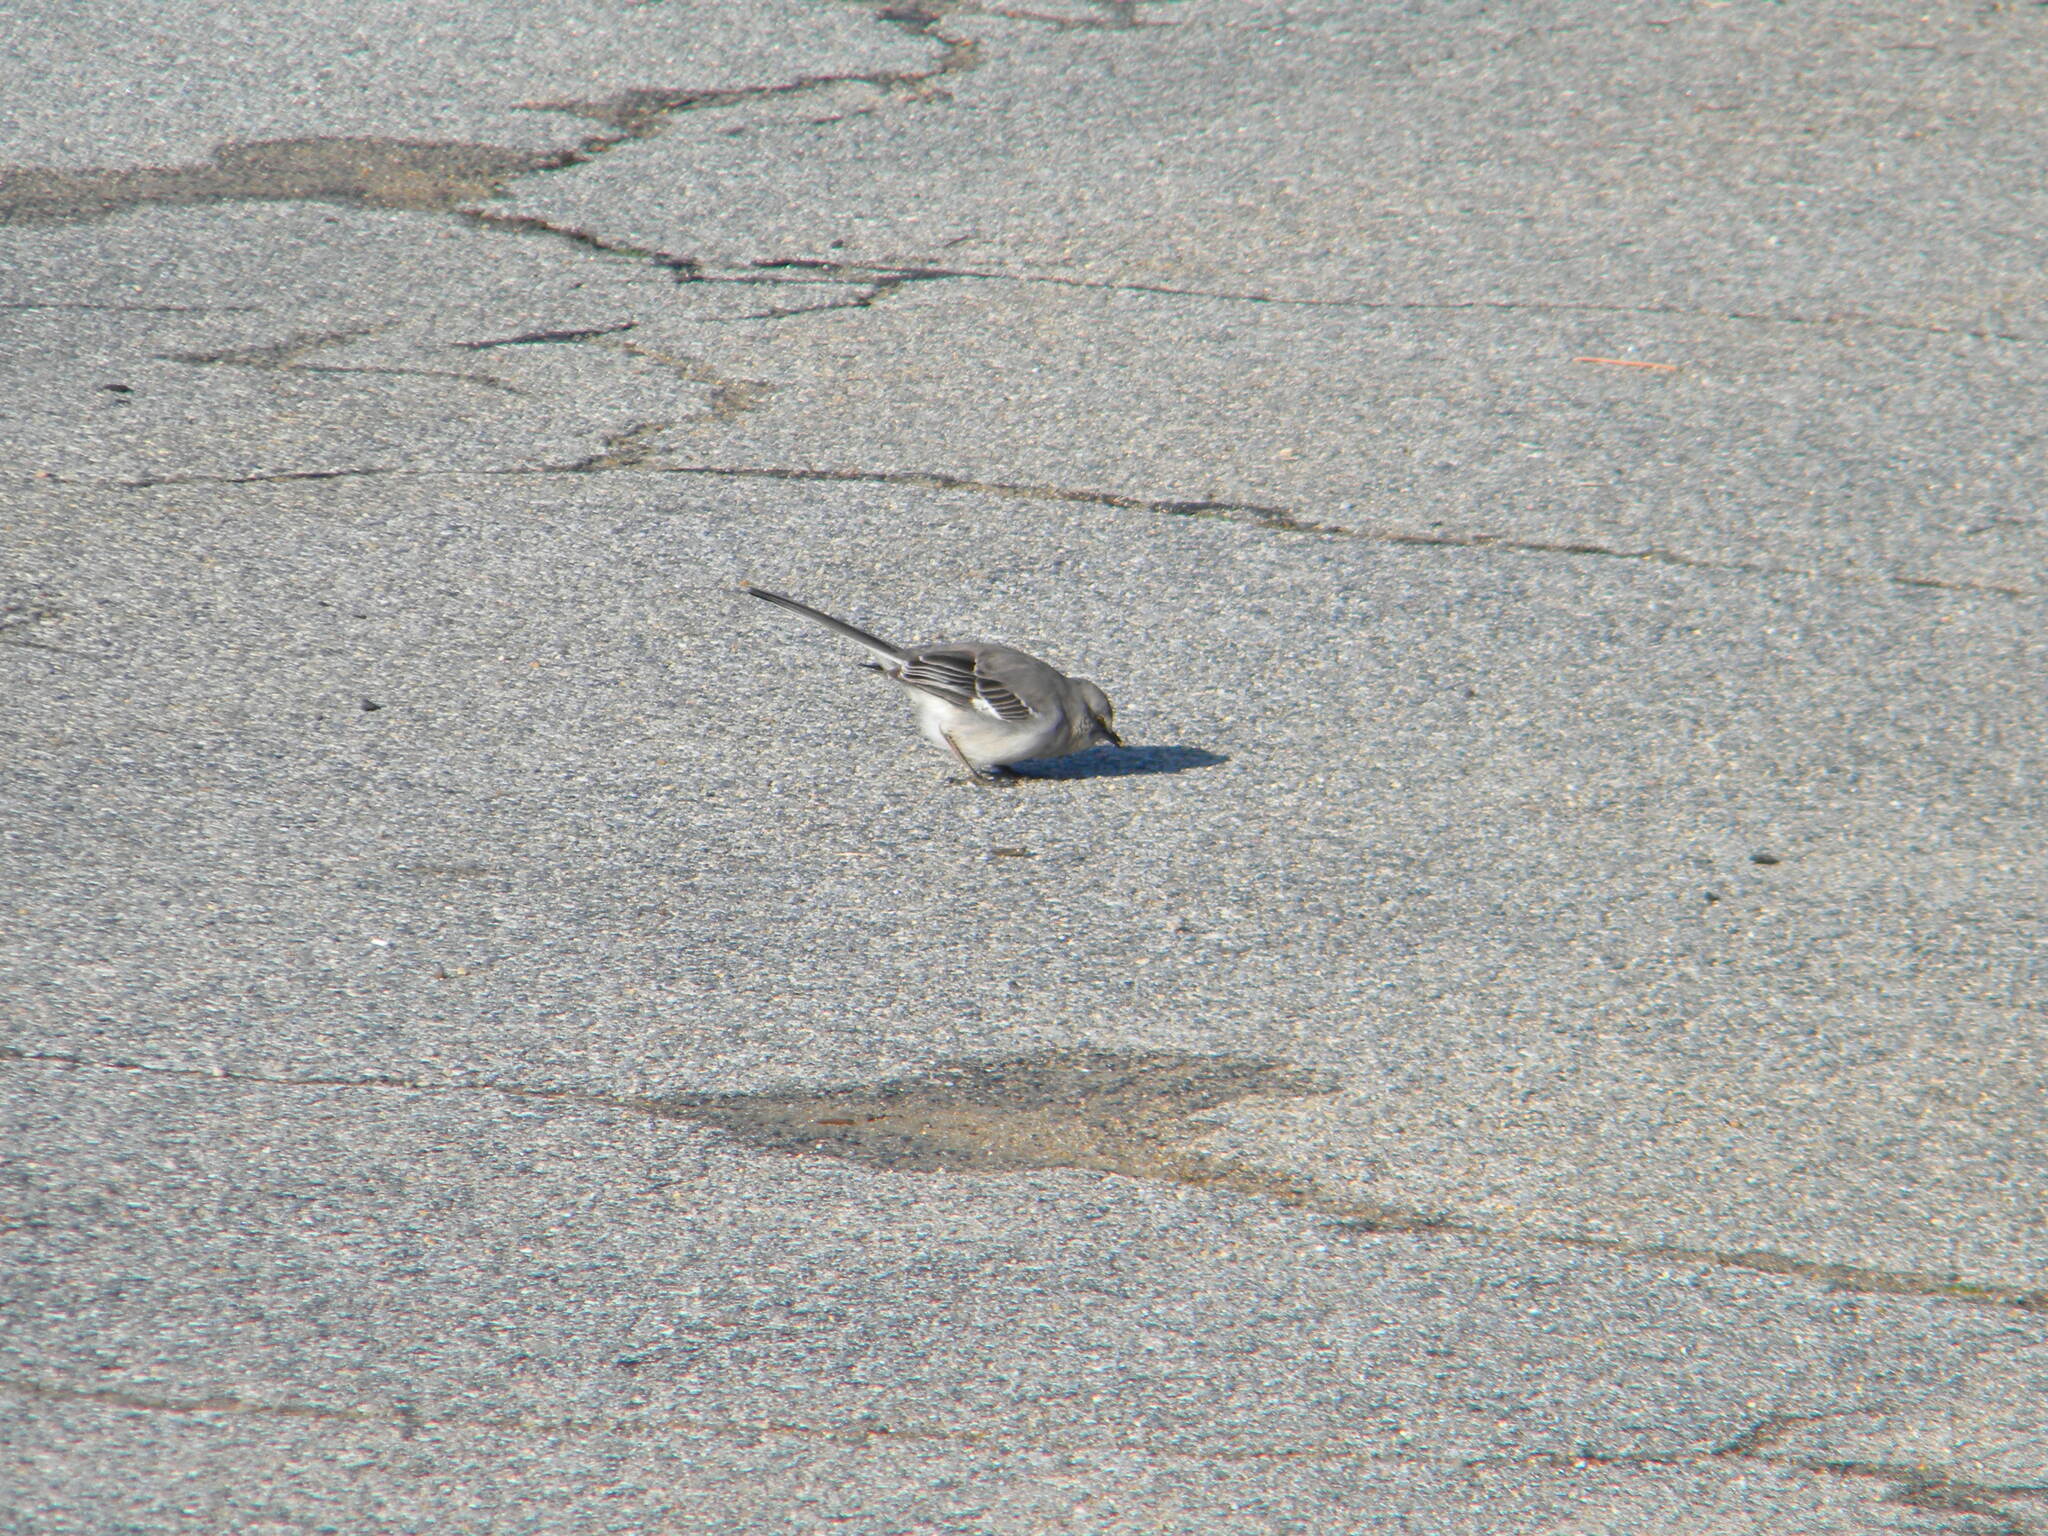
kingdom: Animalia
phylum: Chordata
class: Aves
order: Passeriformes
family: Mimidae
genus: Mimus
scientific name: Mimus polyglottos
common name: Northern mockingbird
